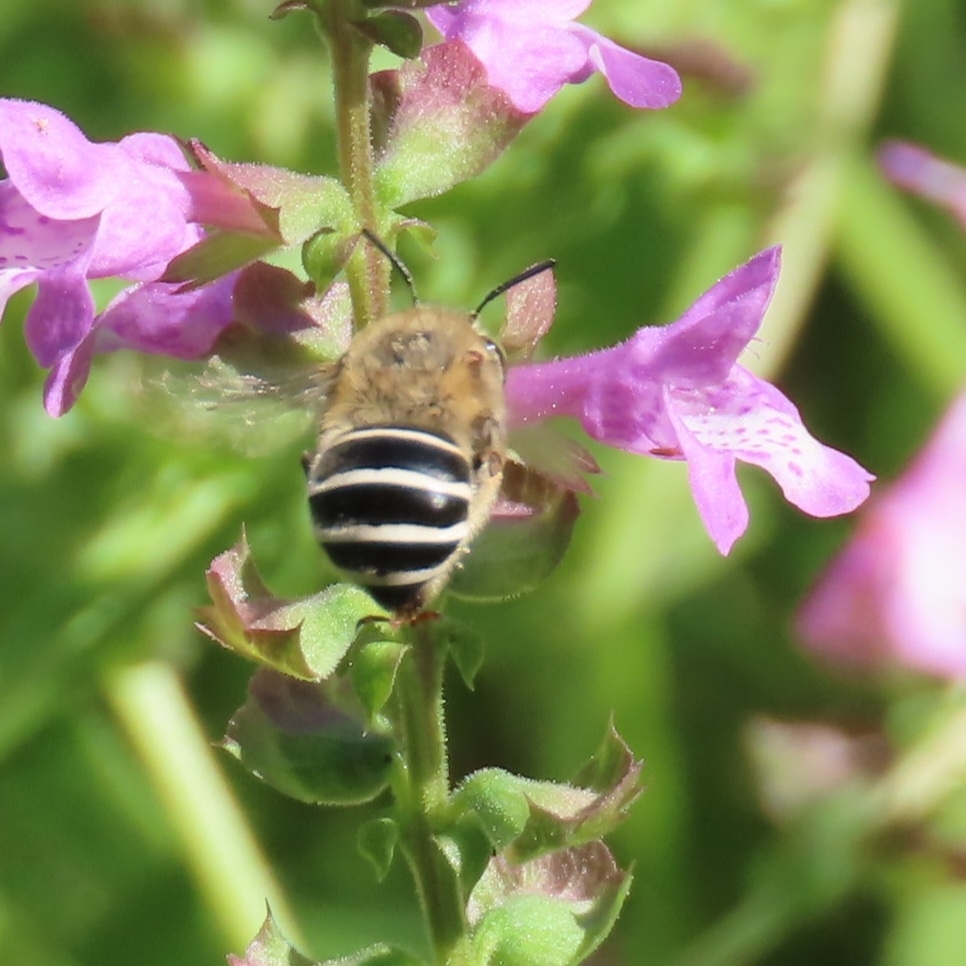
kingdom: Animalia
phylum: Arthropoda
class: Insecta
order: Hymenoptera
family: Apidae
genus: Anthophora
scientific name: Anthophora californica
